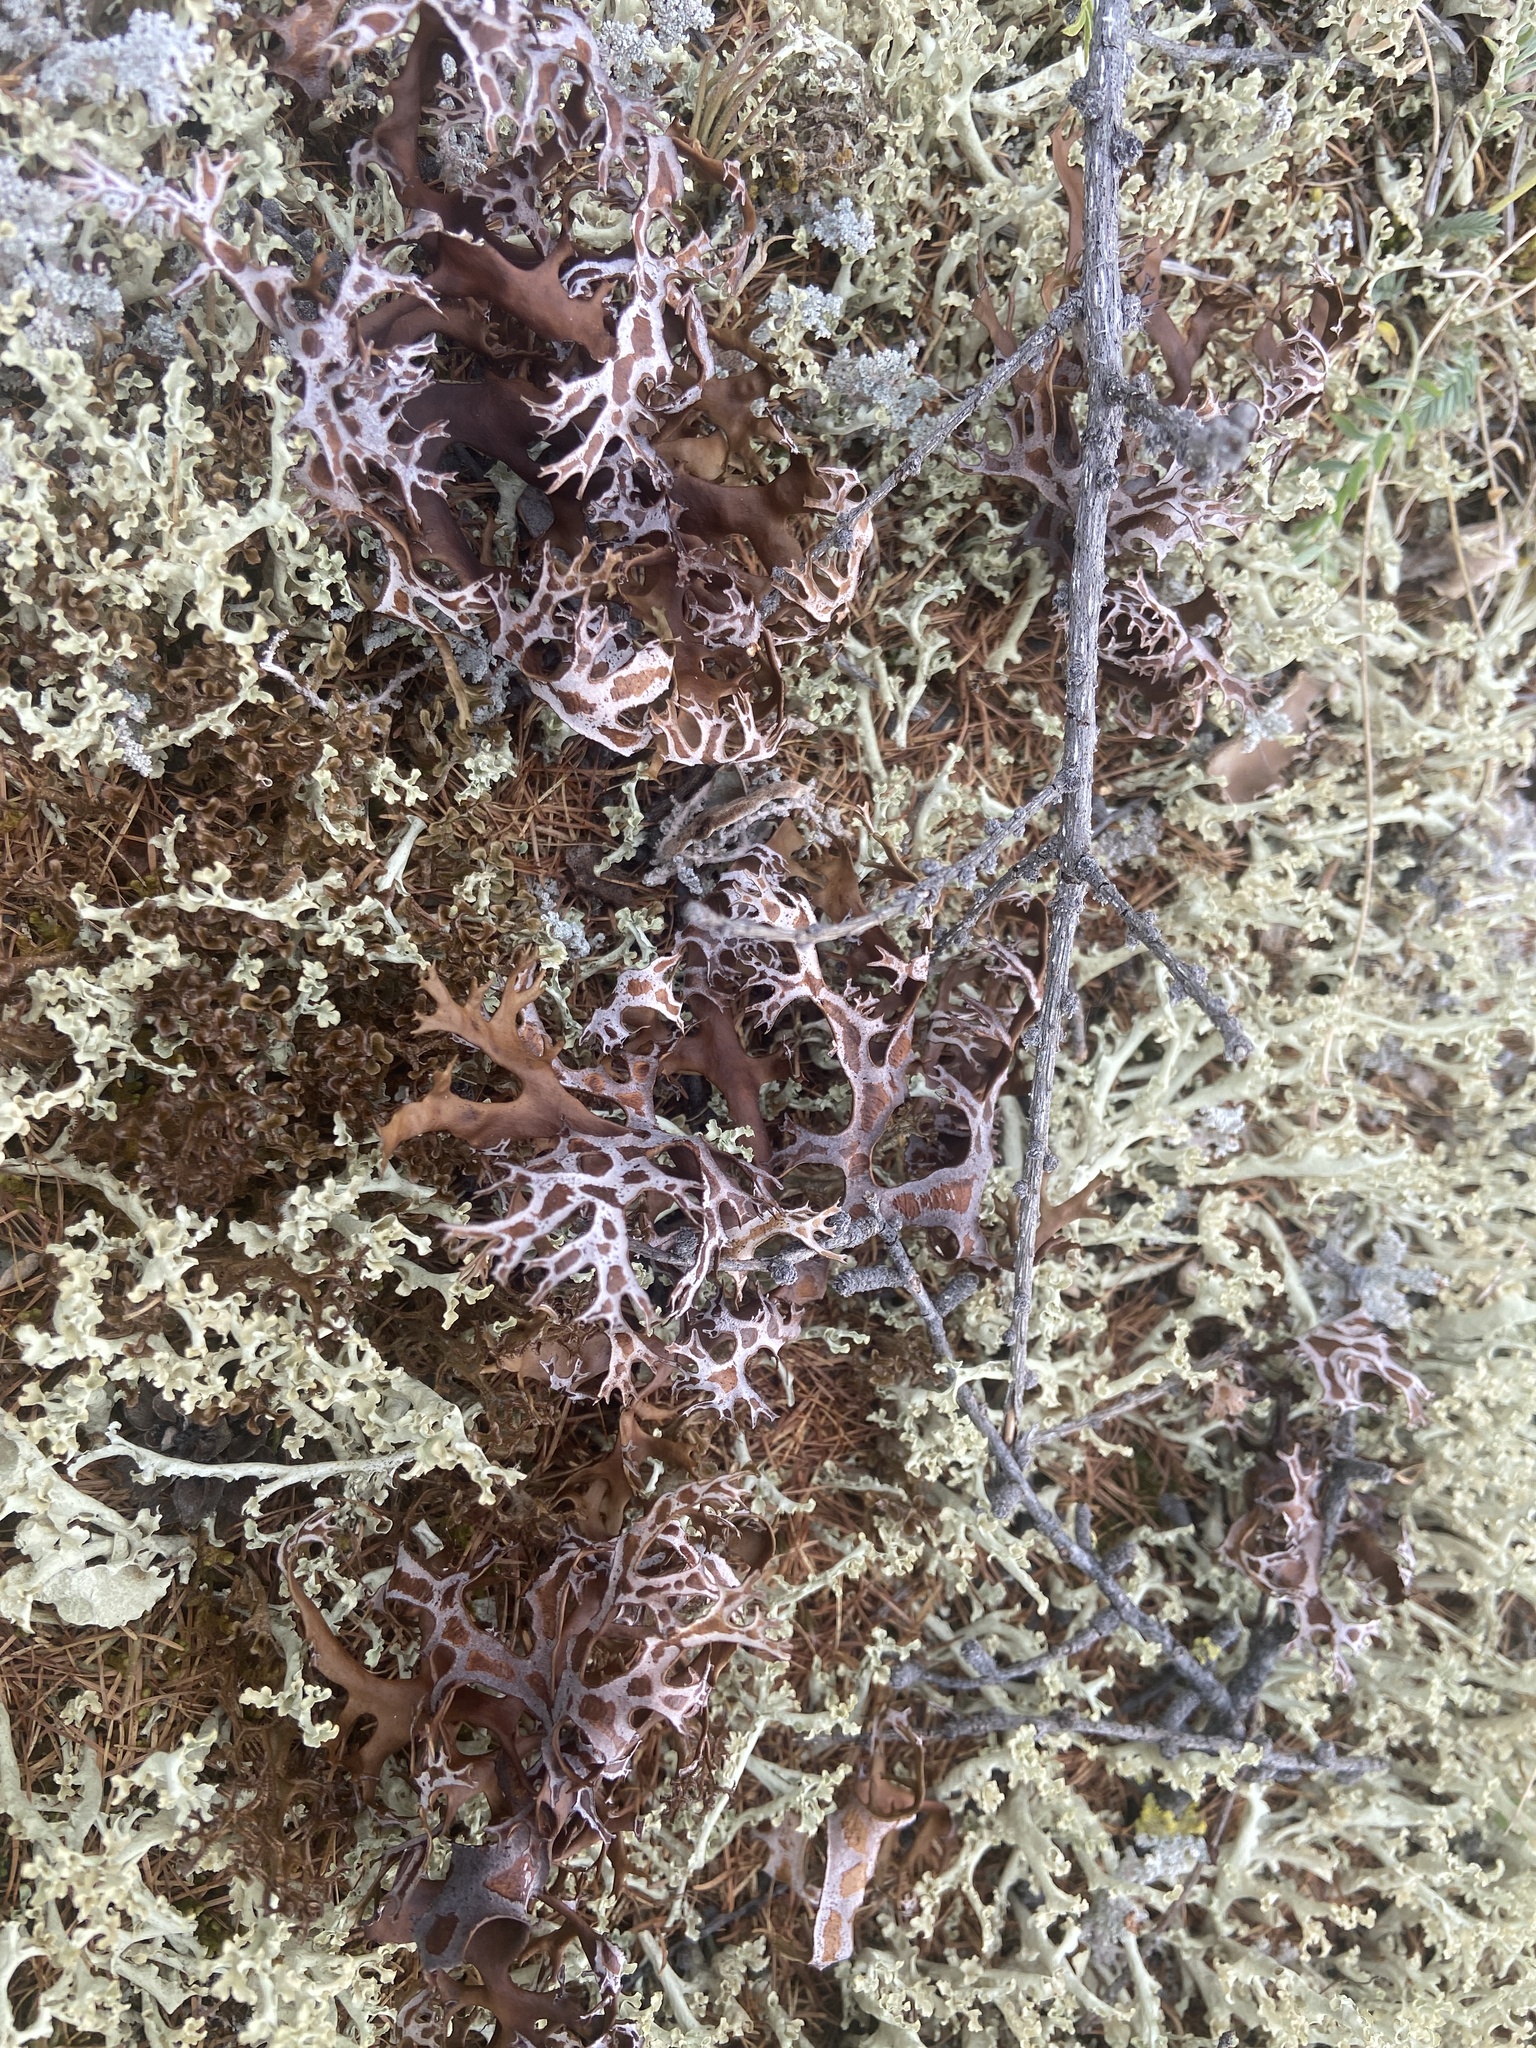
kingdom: Fungi
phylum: Ascomycota
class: Lecanoromycetes
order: Lecanorales
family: Parmeliaceae
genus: Nephromopsis
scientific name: Nephromopsis richardsonii
